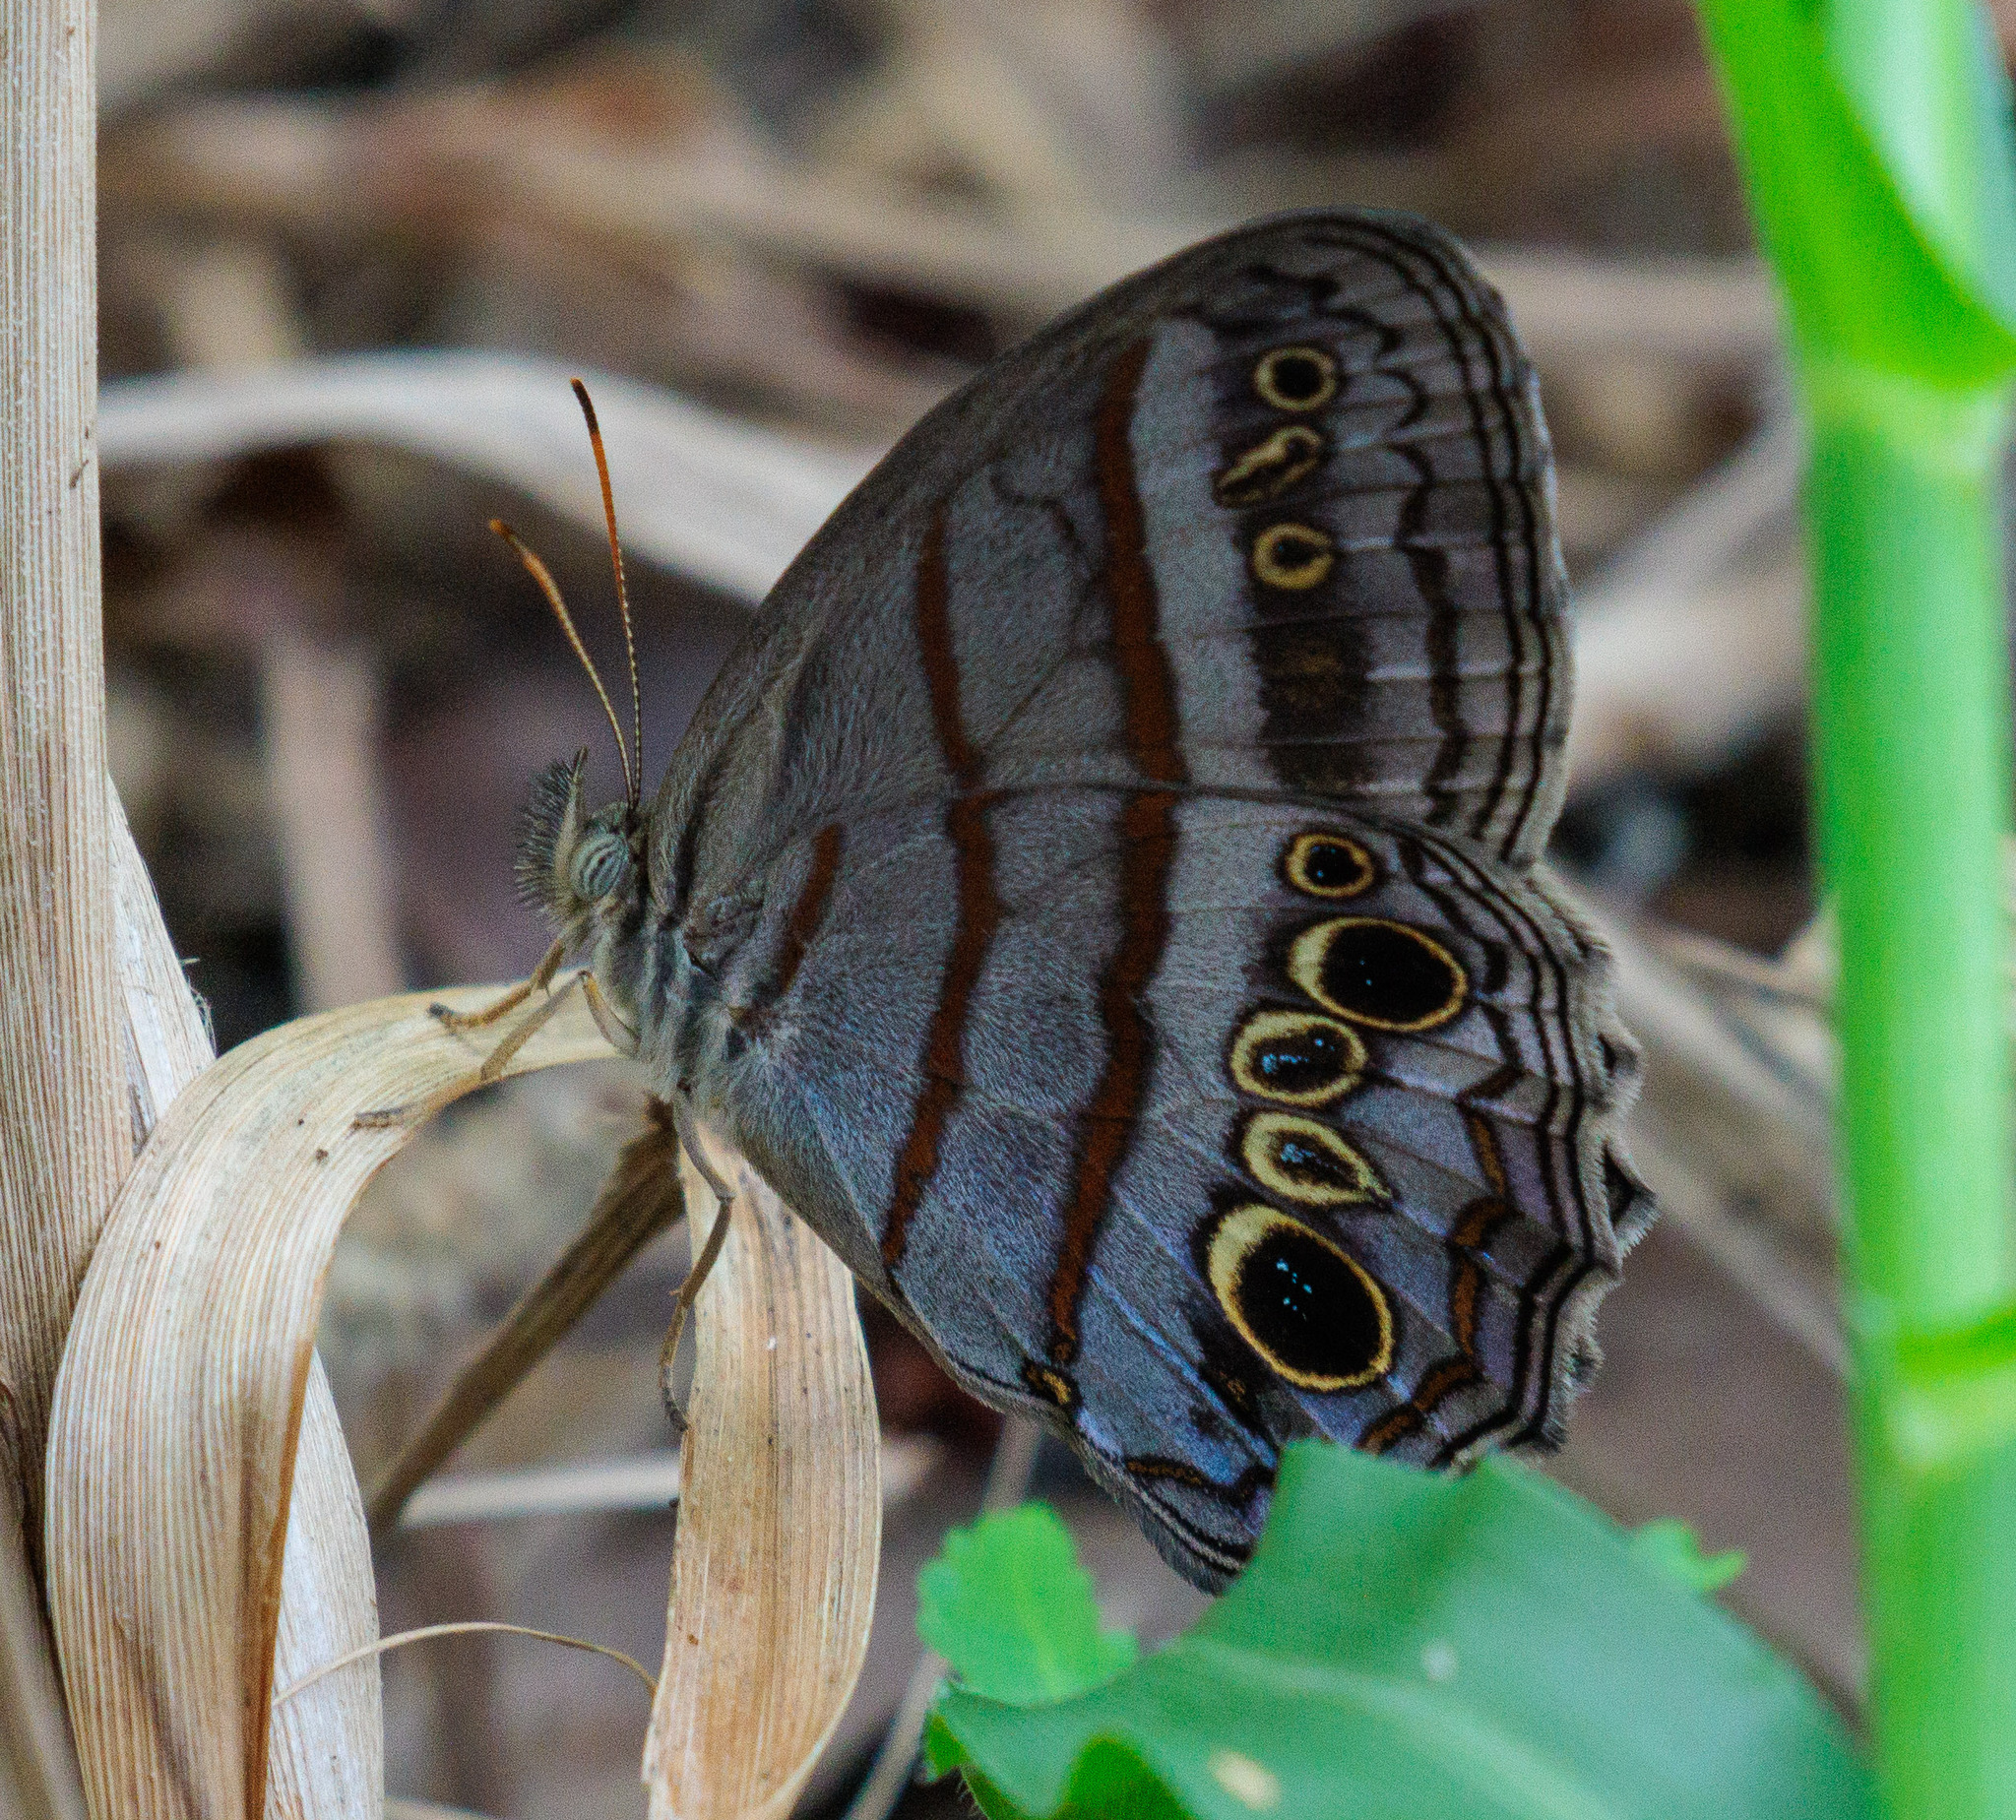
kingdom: Animalia
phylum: Arthropoda
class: Insecta
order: Lepidoptera
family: Nymphalidae
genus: Magneuptychia
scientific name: Magneuptychia libye
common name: Blue-gray satyr
